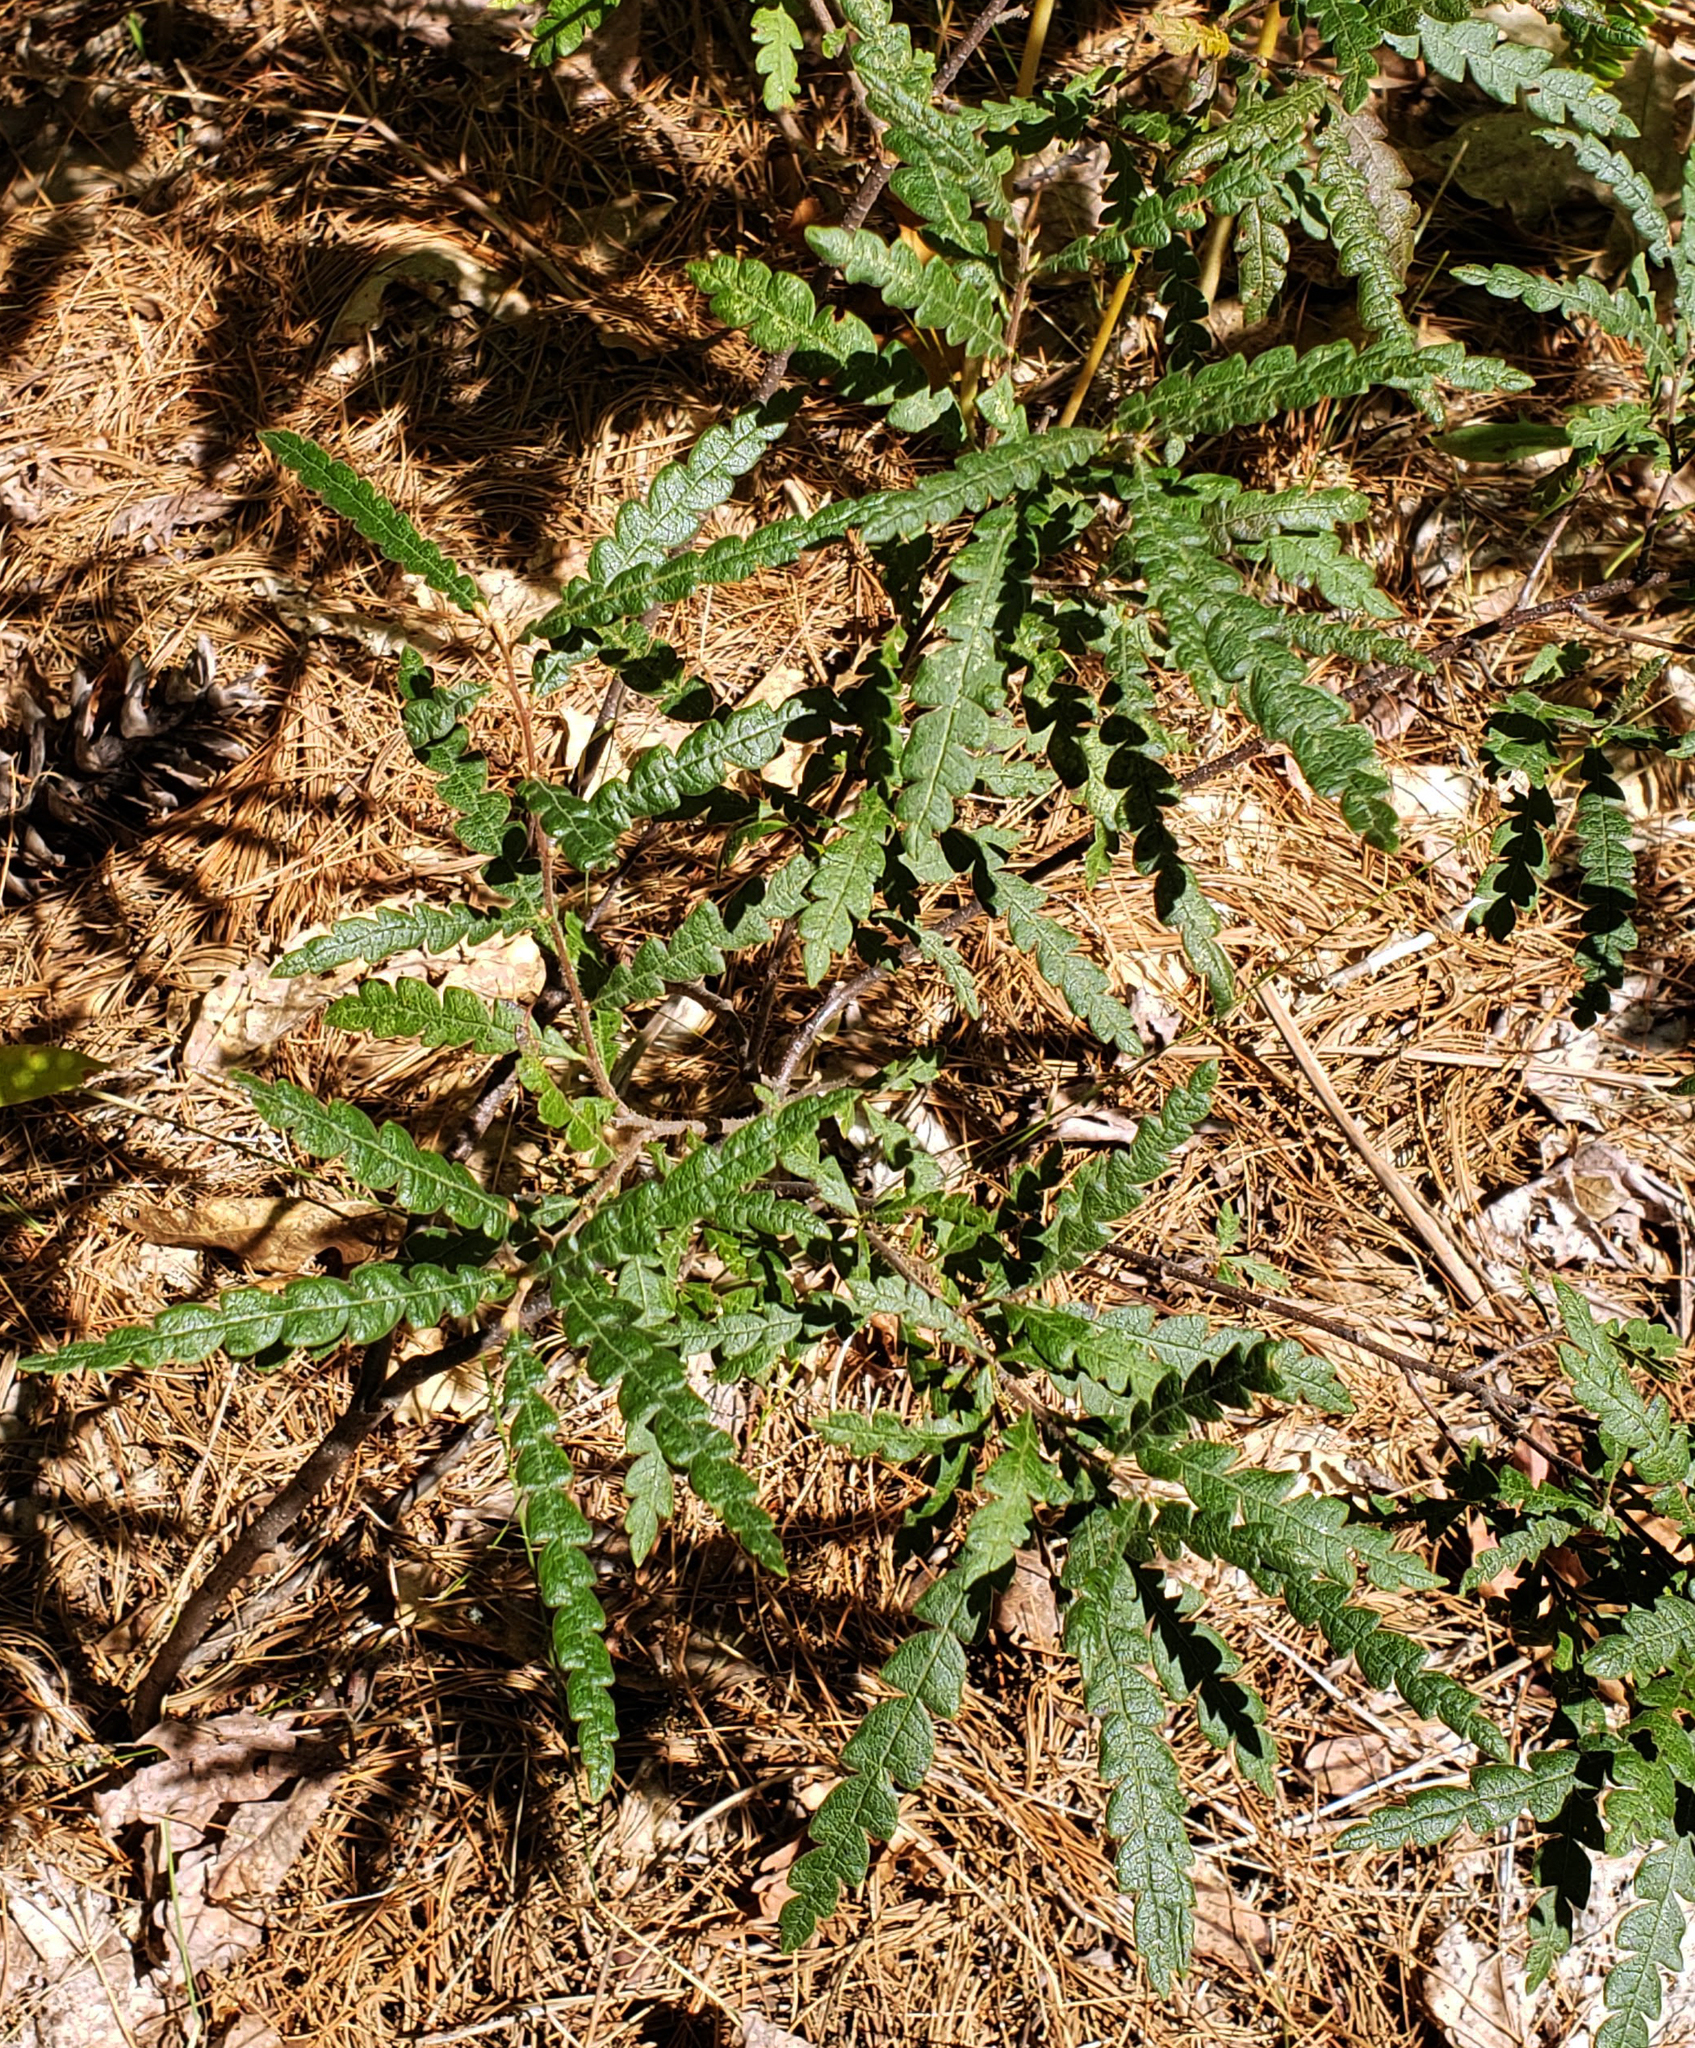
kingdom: Plantae
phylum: Tracheophyta
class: Magnoliopsida
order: Fagales
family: Myricaceae
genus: Comptonia
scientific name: Comptonia peregrina
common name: Sweet-fern
